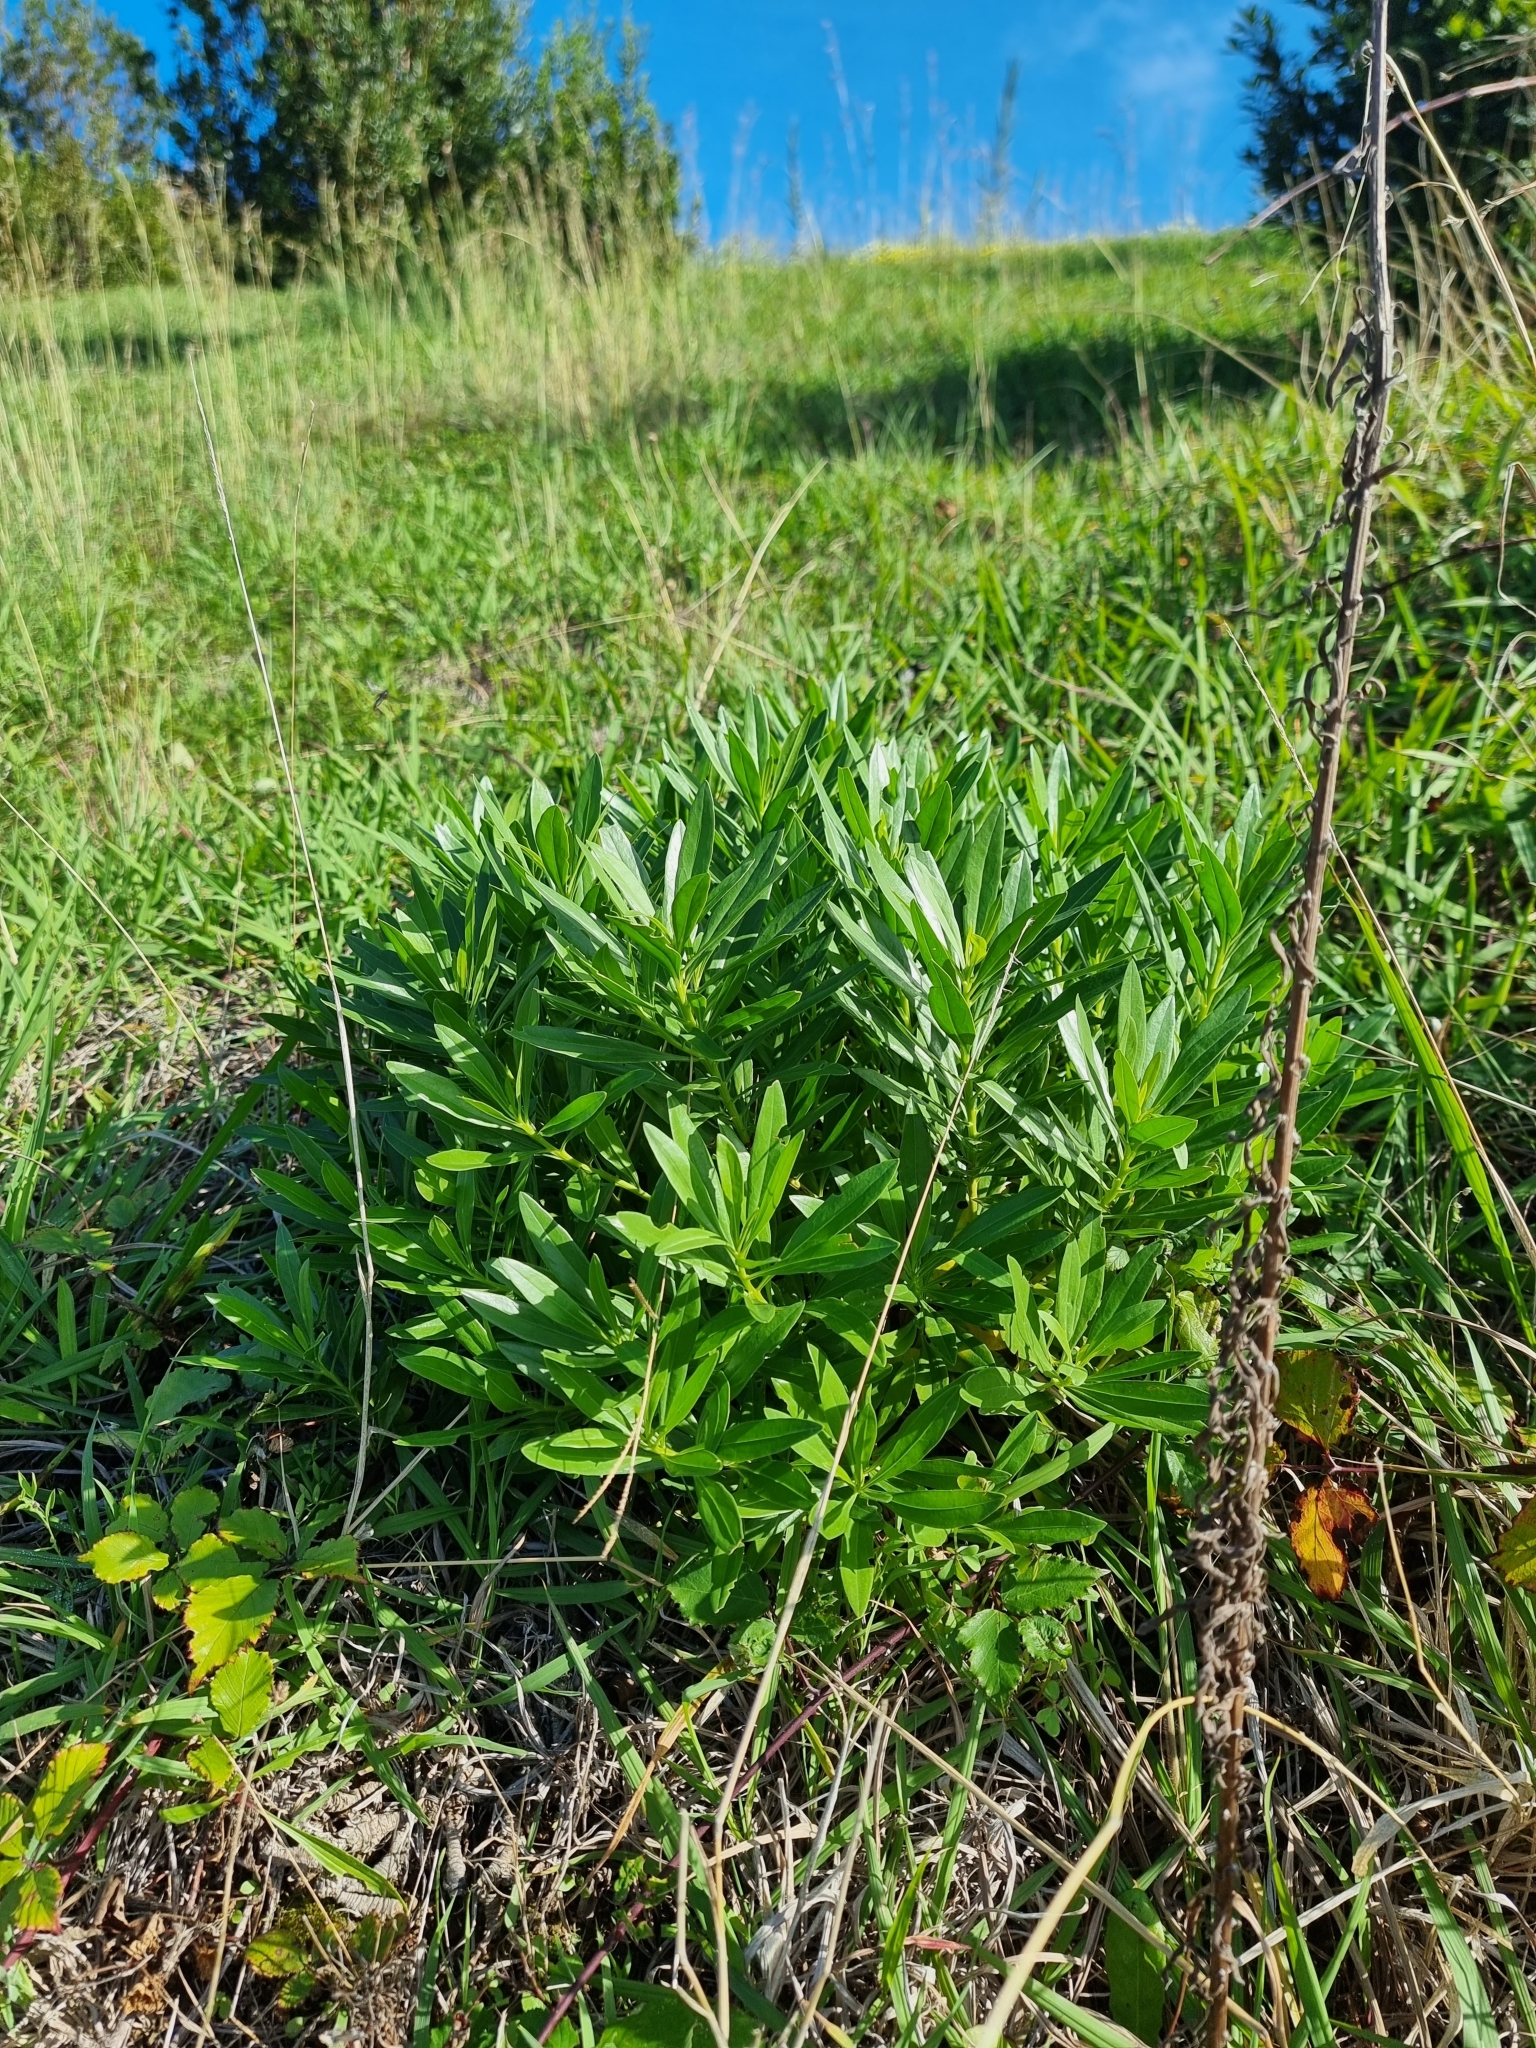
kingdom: Plantae
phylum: Tracheophyta
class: Magnoliopsida
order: Lamiales
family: Plantaginaceae
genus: Globularia
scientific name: Globularia salicina
